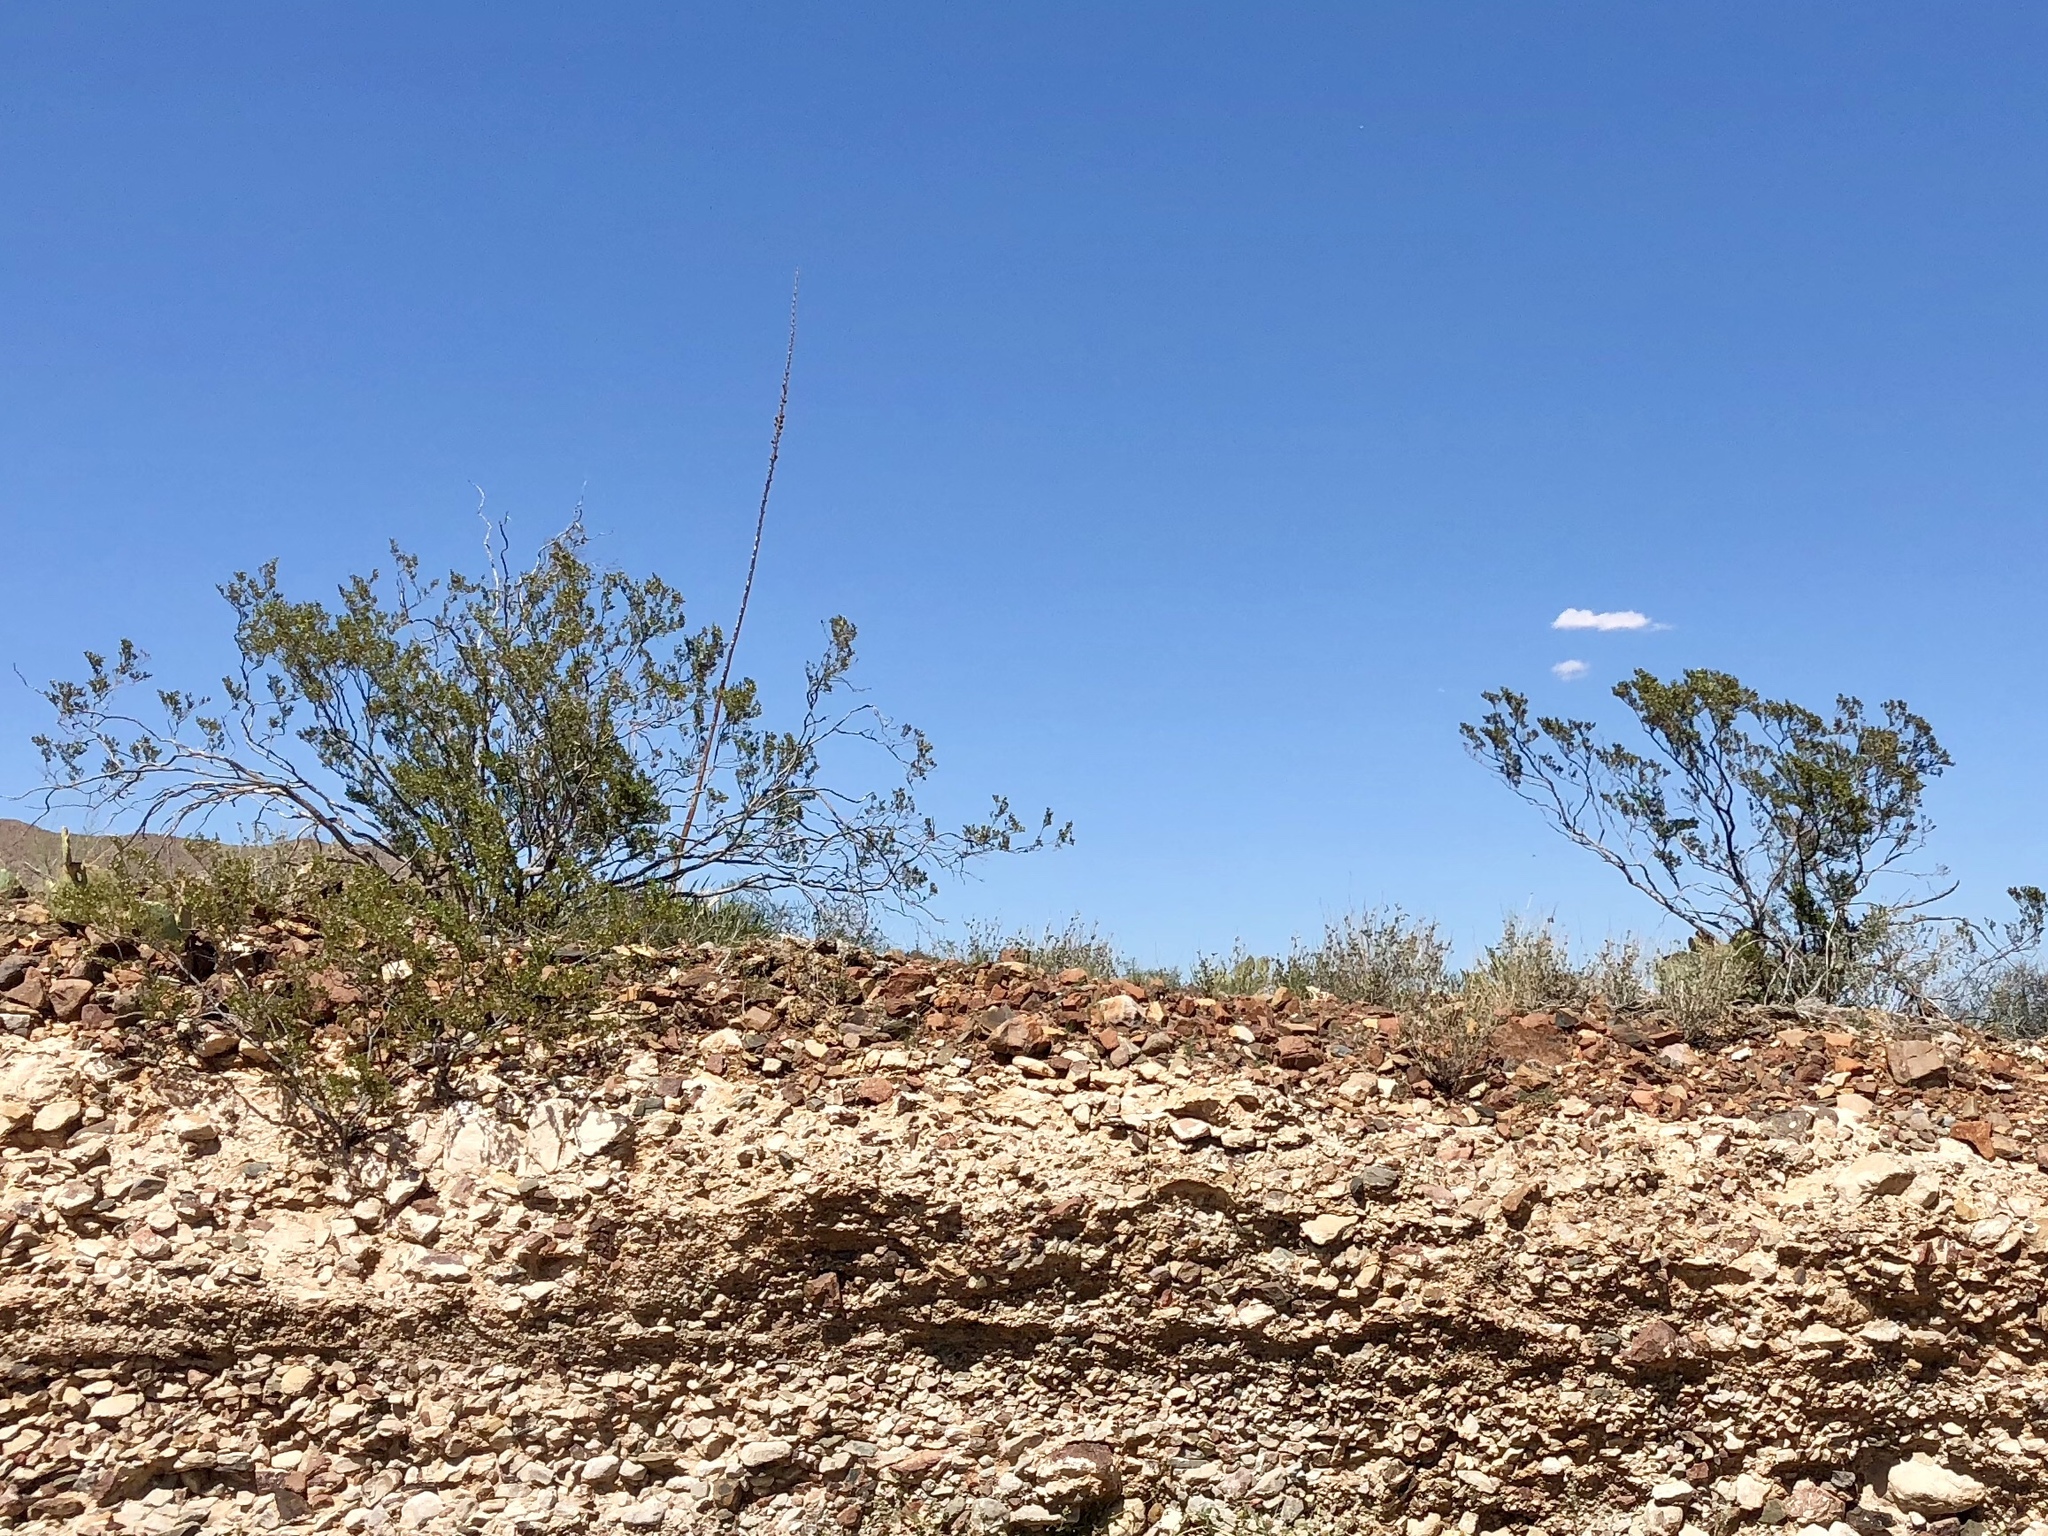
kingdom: Plantae
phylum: Tracheophyta
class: Magnoliopsida
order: Zygophyllales
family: Zygophyllaceae
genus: Larrea
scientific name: Larrea tridentata
